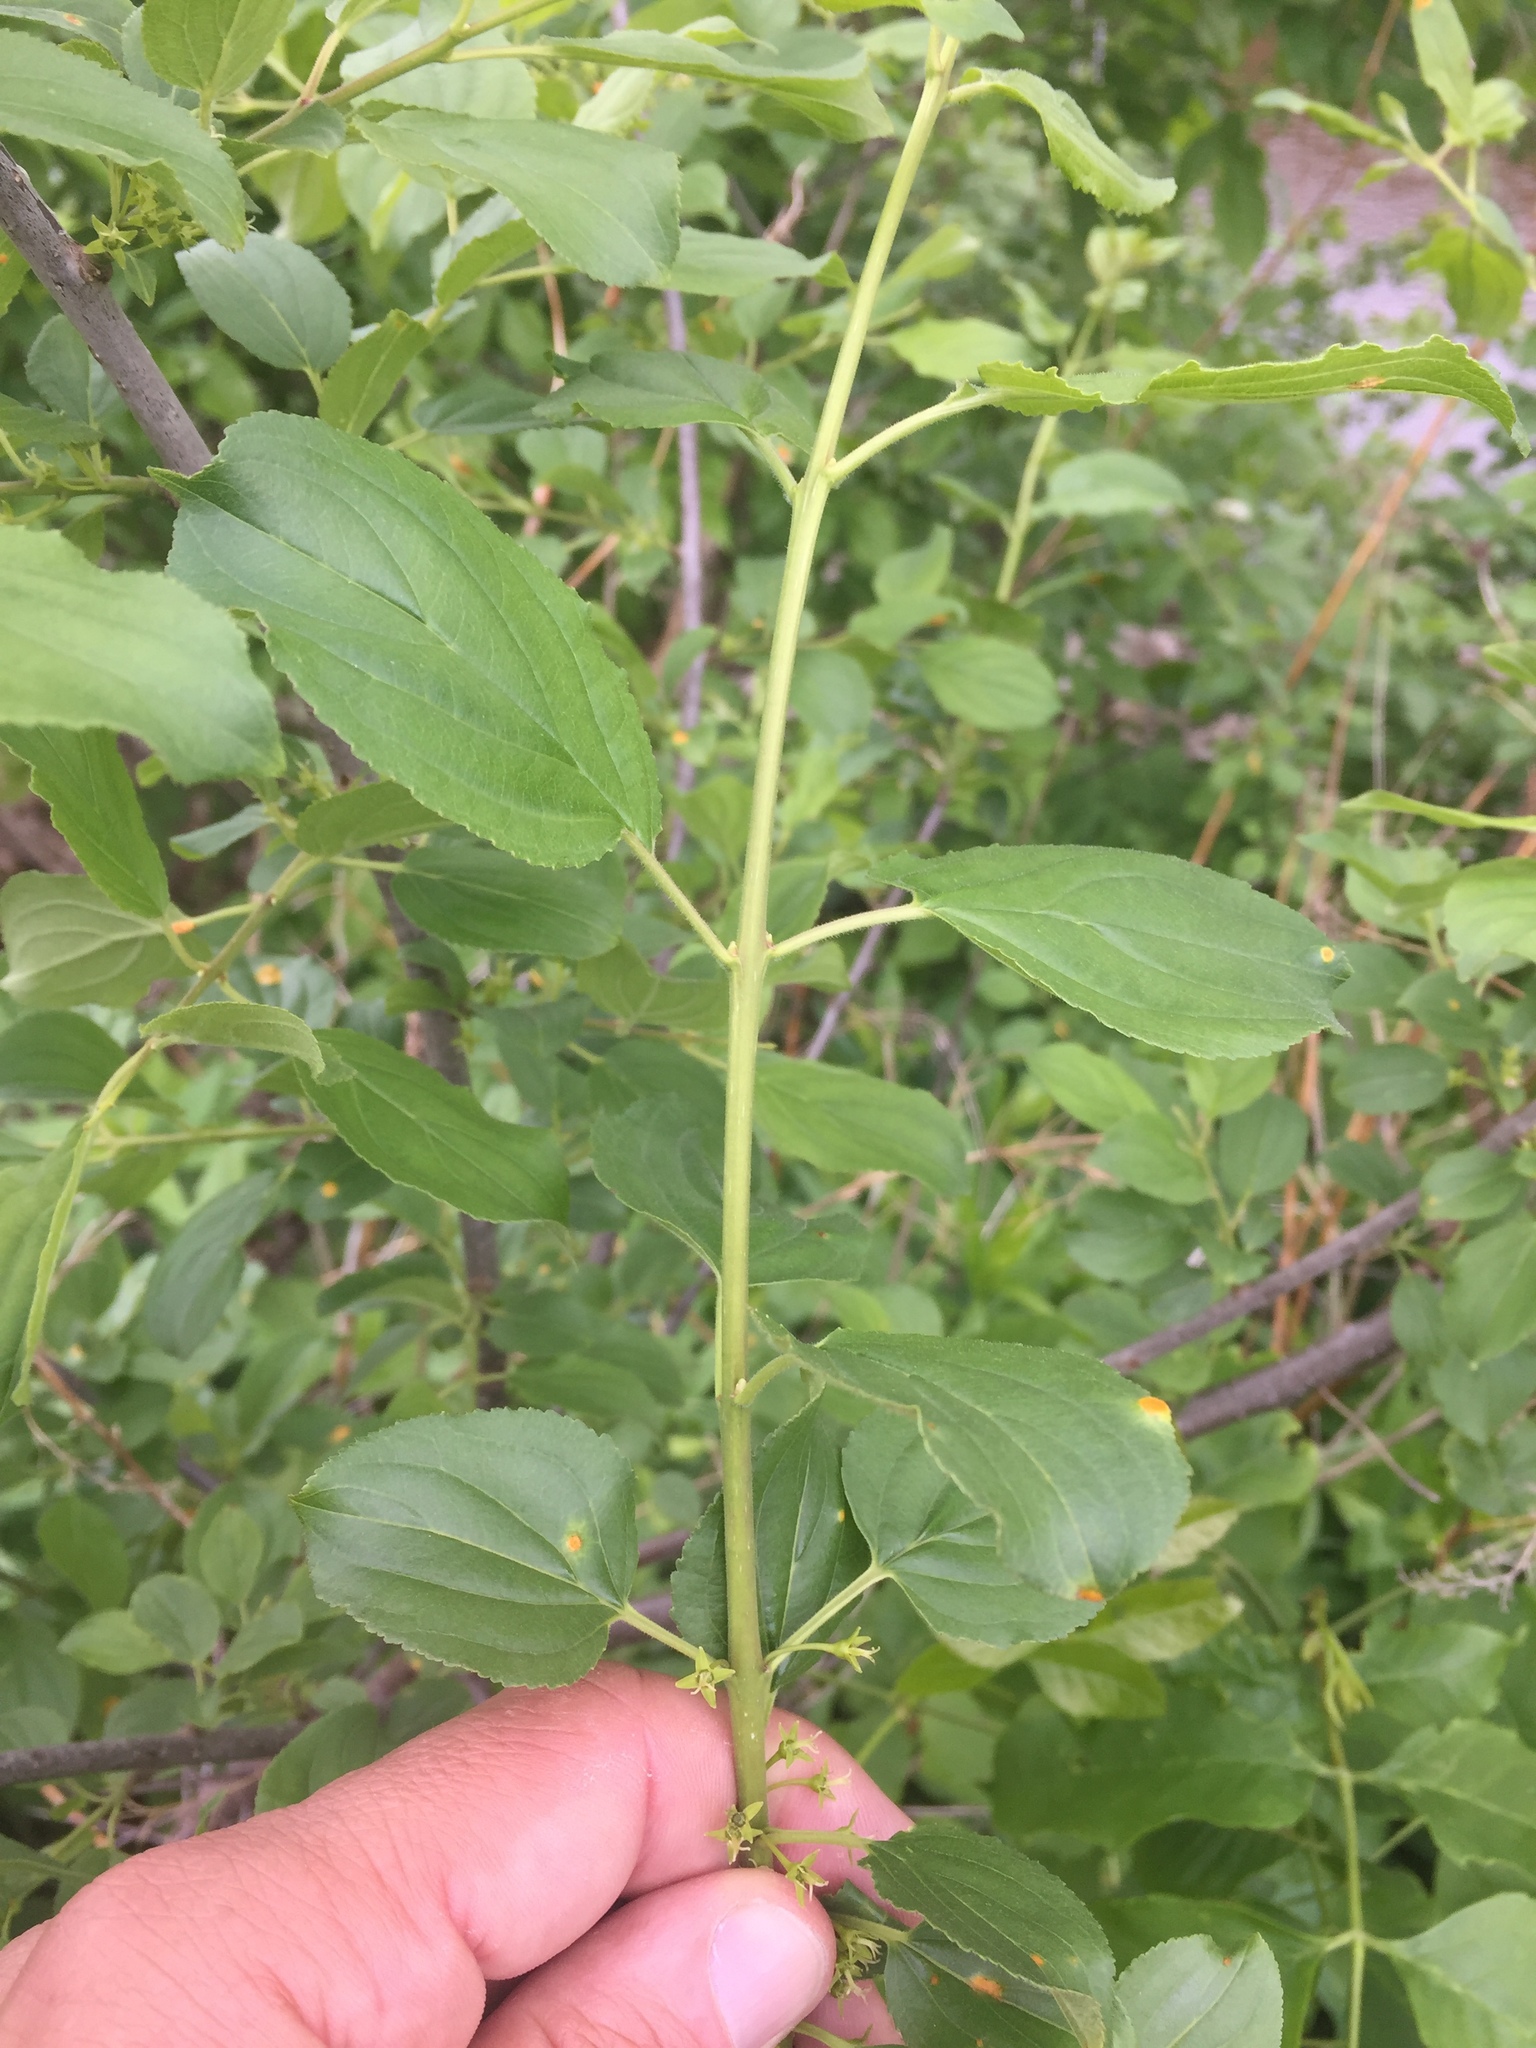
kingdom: Plantae
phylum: Tracheophyta
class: Magnoliopsida
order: Rosales
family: Rhamnaceae
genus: Rhamnus
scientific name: Rhamnus cathartica
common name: Common buckthorn
